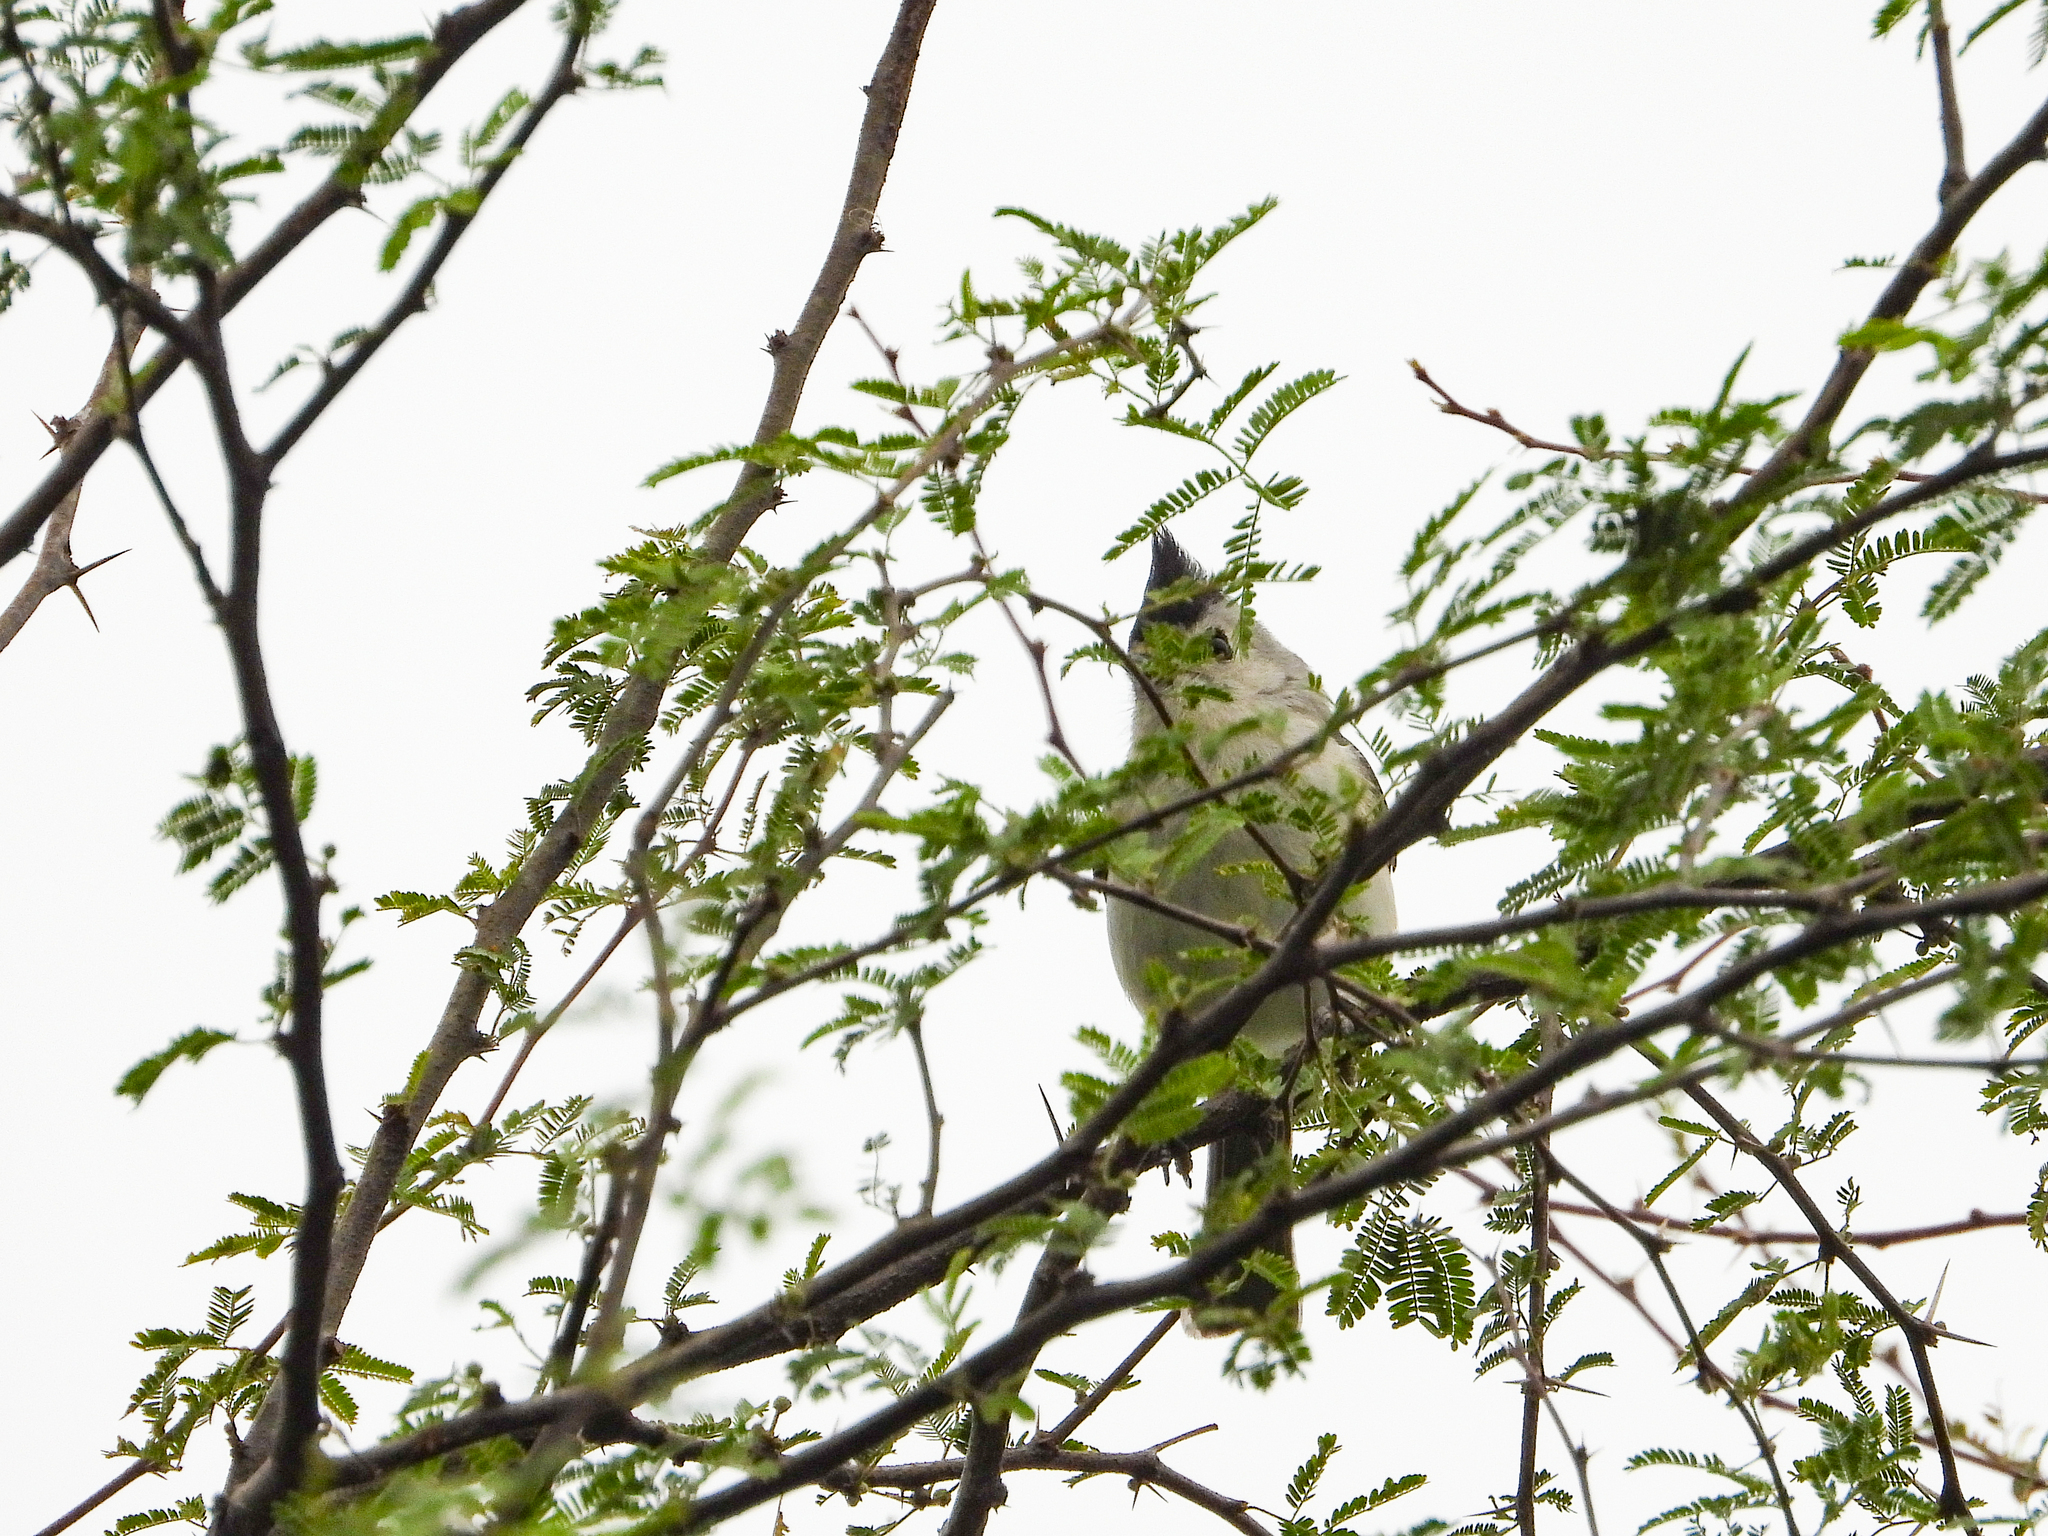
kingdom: Animalia
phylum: Chordata
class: Aves
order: Passeriformes
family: Paridae
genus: Baeolophus
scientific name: Baeolophus atricristatus
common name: Black-crested titmouse
